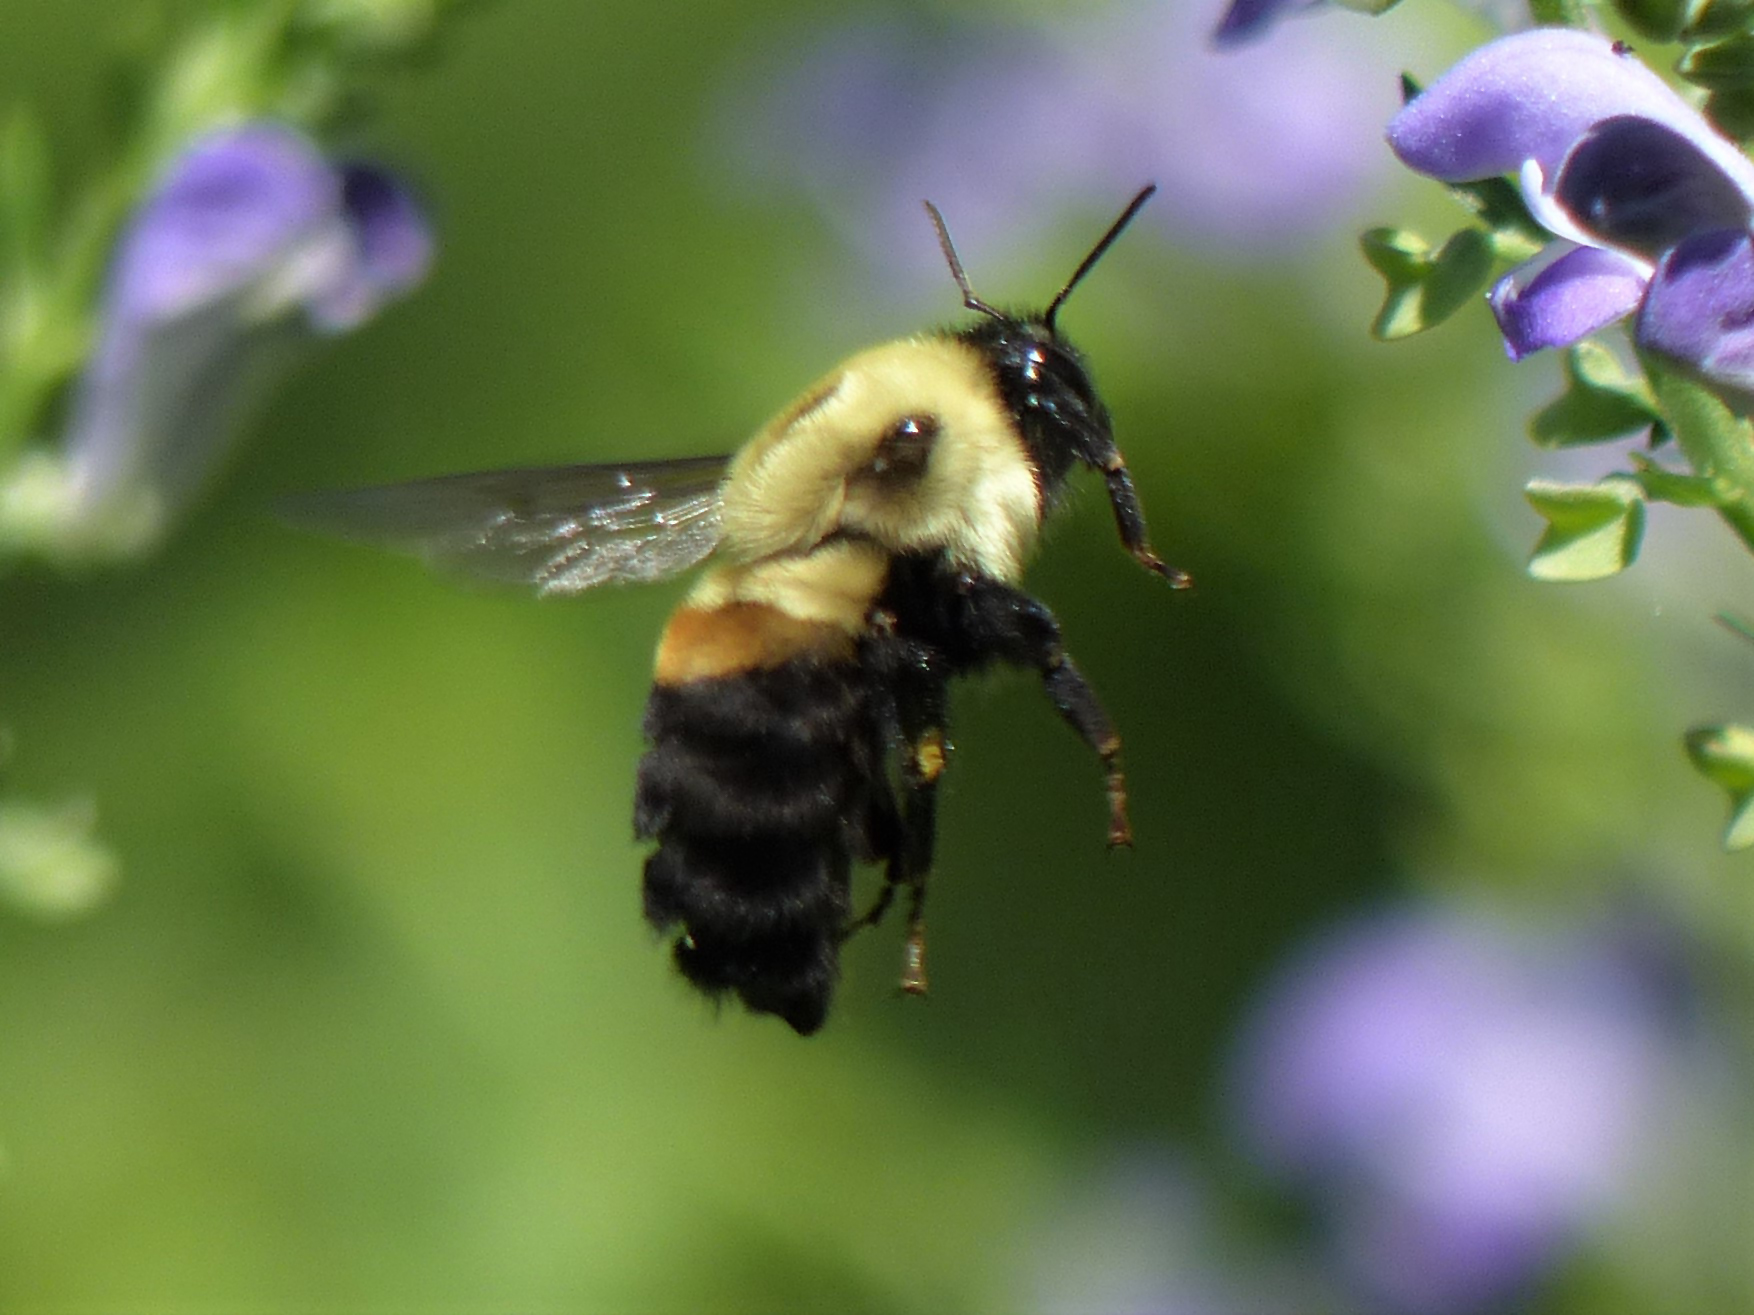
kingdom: Animalia
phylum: Arthropoda
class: Insecta
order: Hymenoptera
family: Apidae
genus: Bombus
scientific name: Bombus griseocollis
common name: Brown-belted bumble bee
